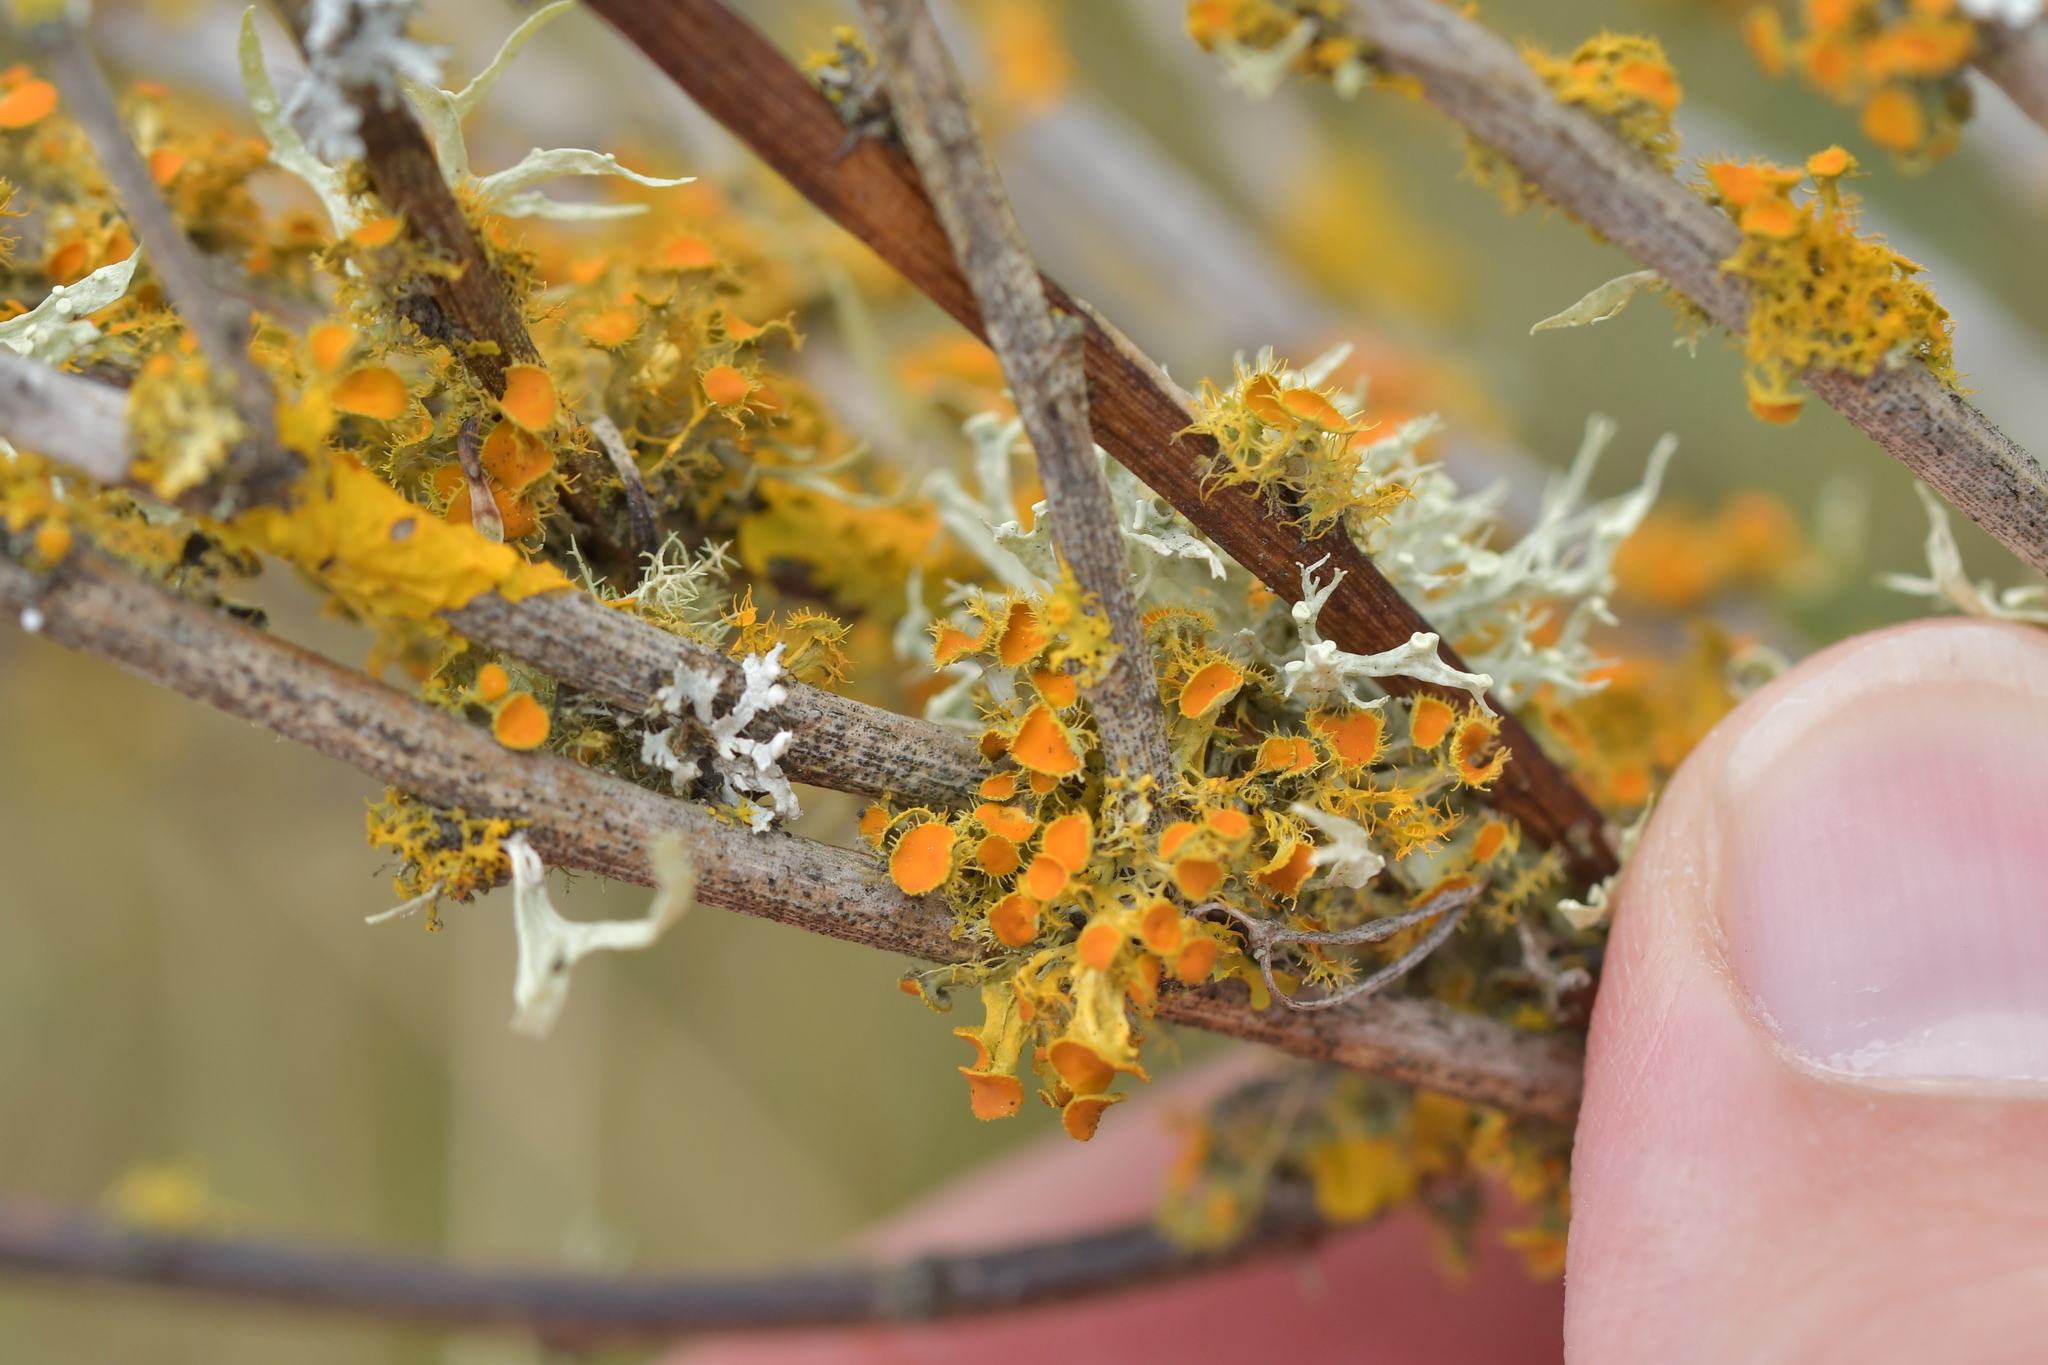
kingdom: Fungi
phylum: Ascomycota
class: Lecanoromycetes
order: Teloschistales
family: Teloschistaceae
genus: Niorma
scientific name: Niorma chrysophthalma
